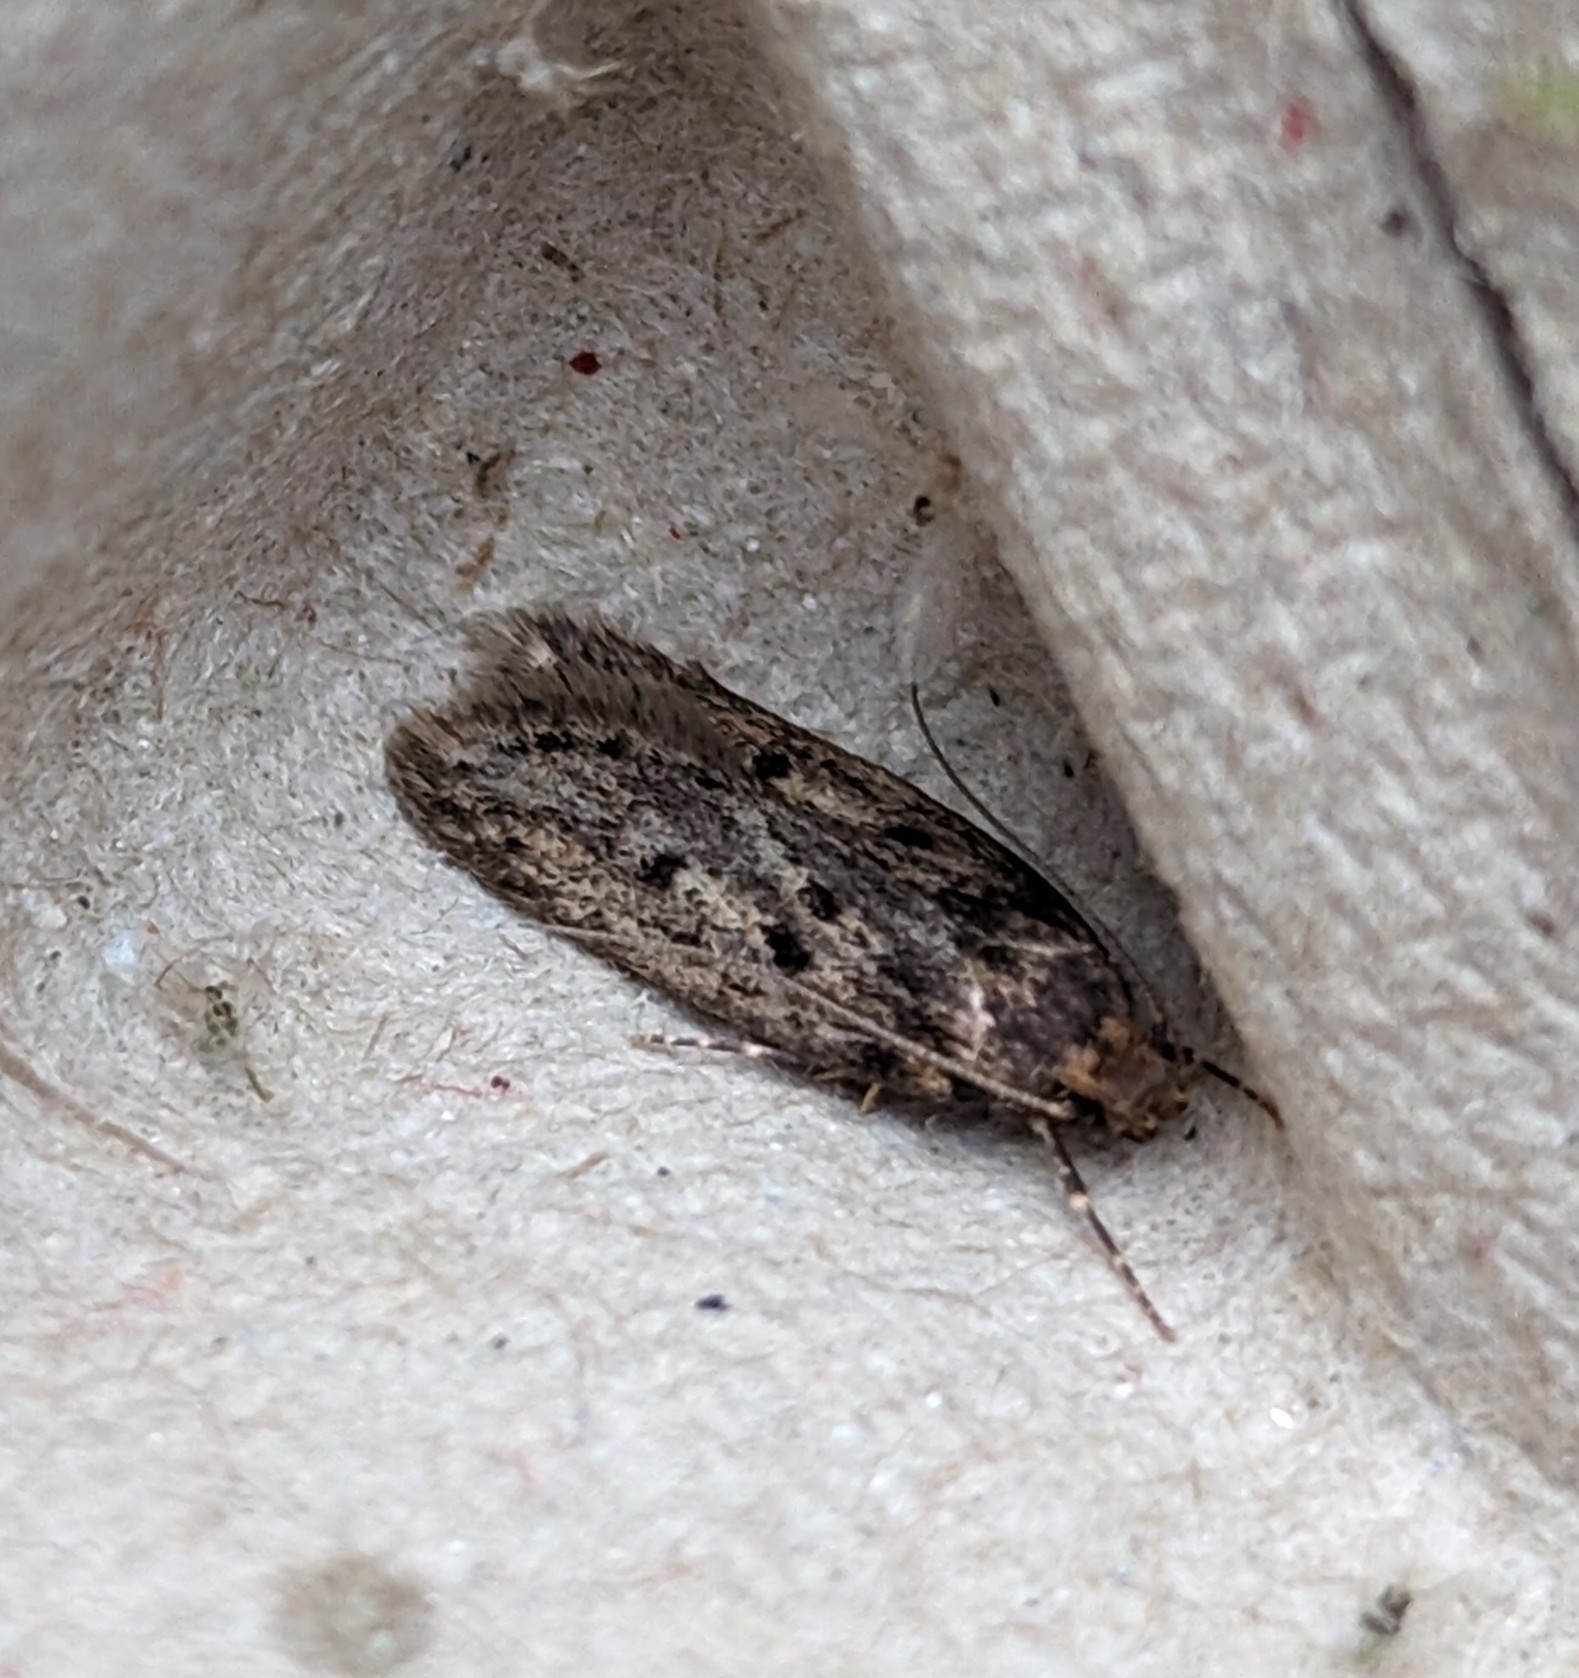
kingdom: Animalia
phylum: Arthropoda
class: Insecta
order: Lepidoptera
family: Oecophoridae
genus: Hofmannophila
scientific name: Hofmannophila pseudospretella
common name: Brown house moth
